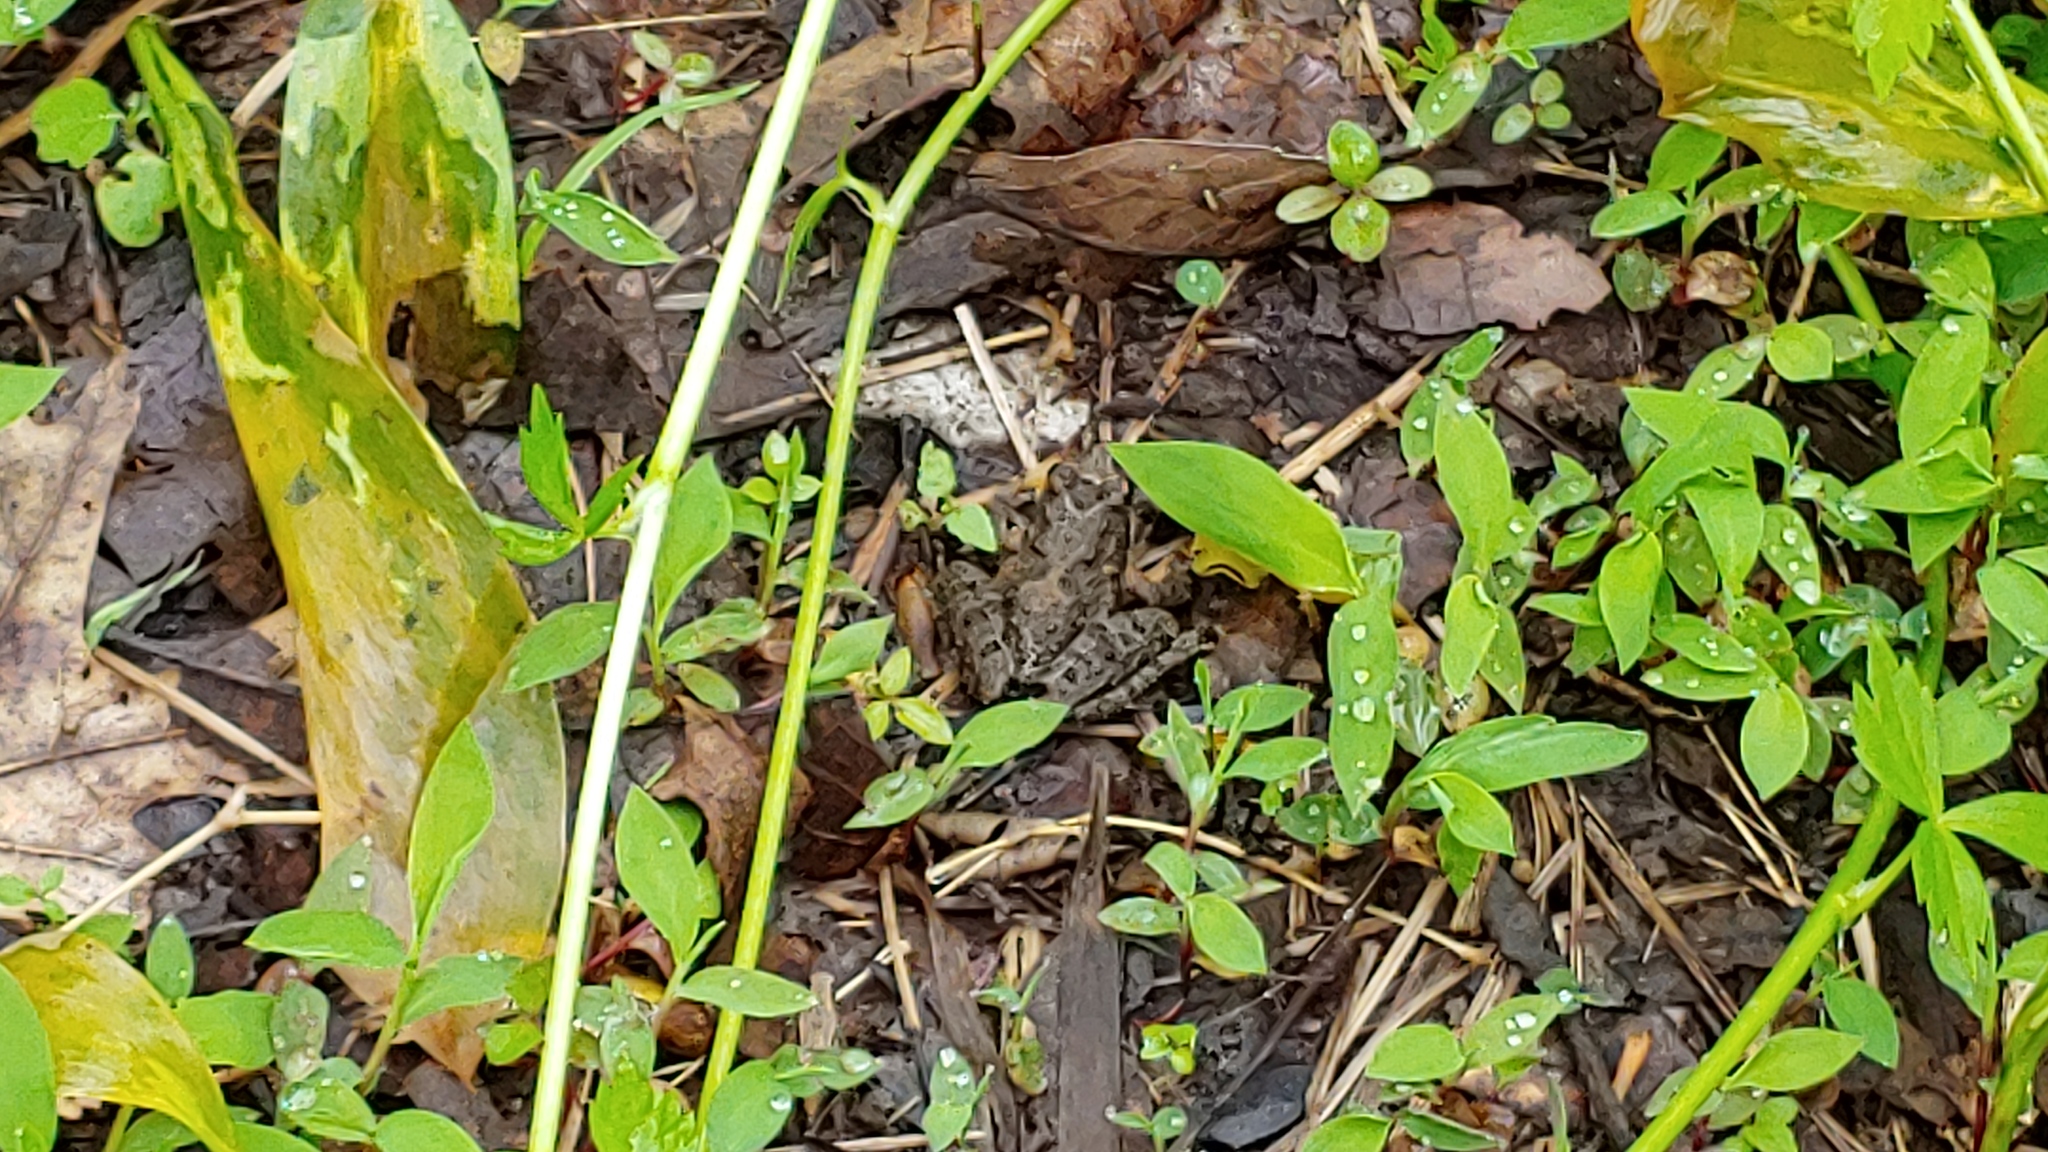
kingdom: Animalia
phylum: Chordata
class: Amphibia
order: Anura
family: Hylidae
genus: Acris
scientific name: Acris blanchardi
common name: Blanchard's cricket frog
